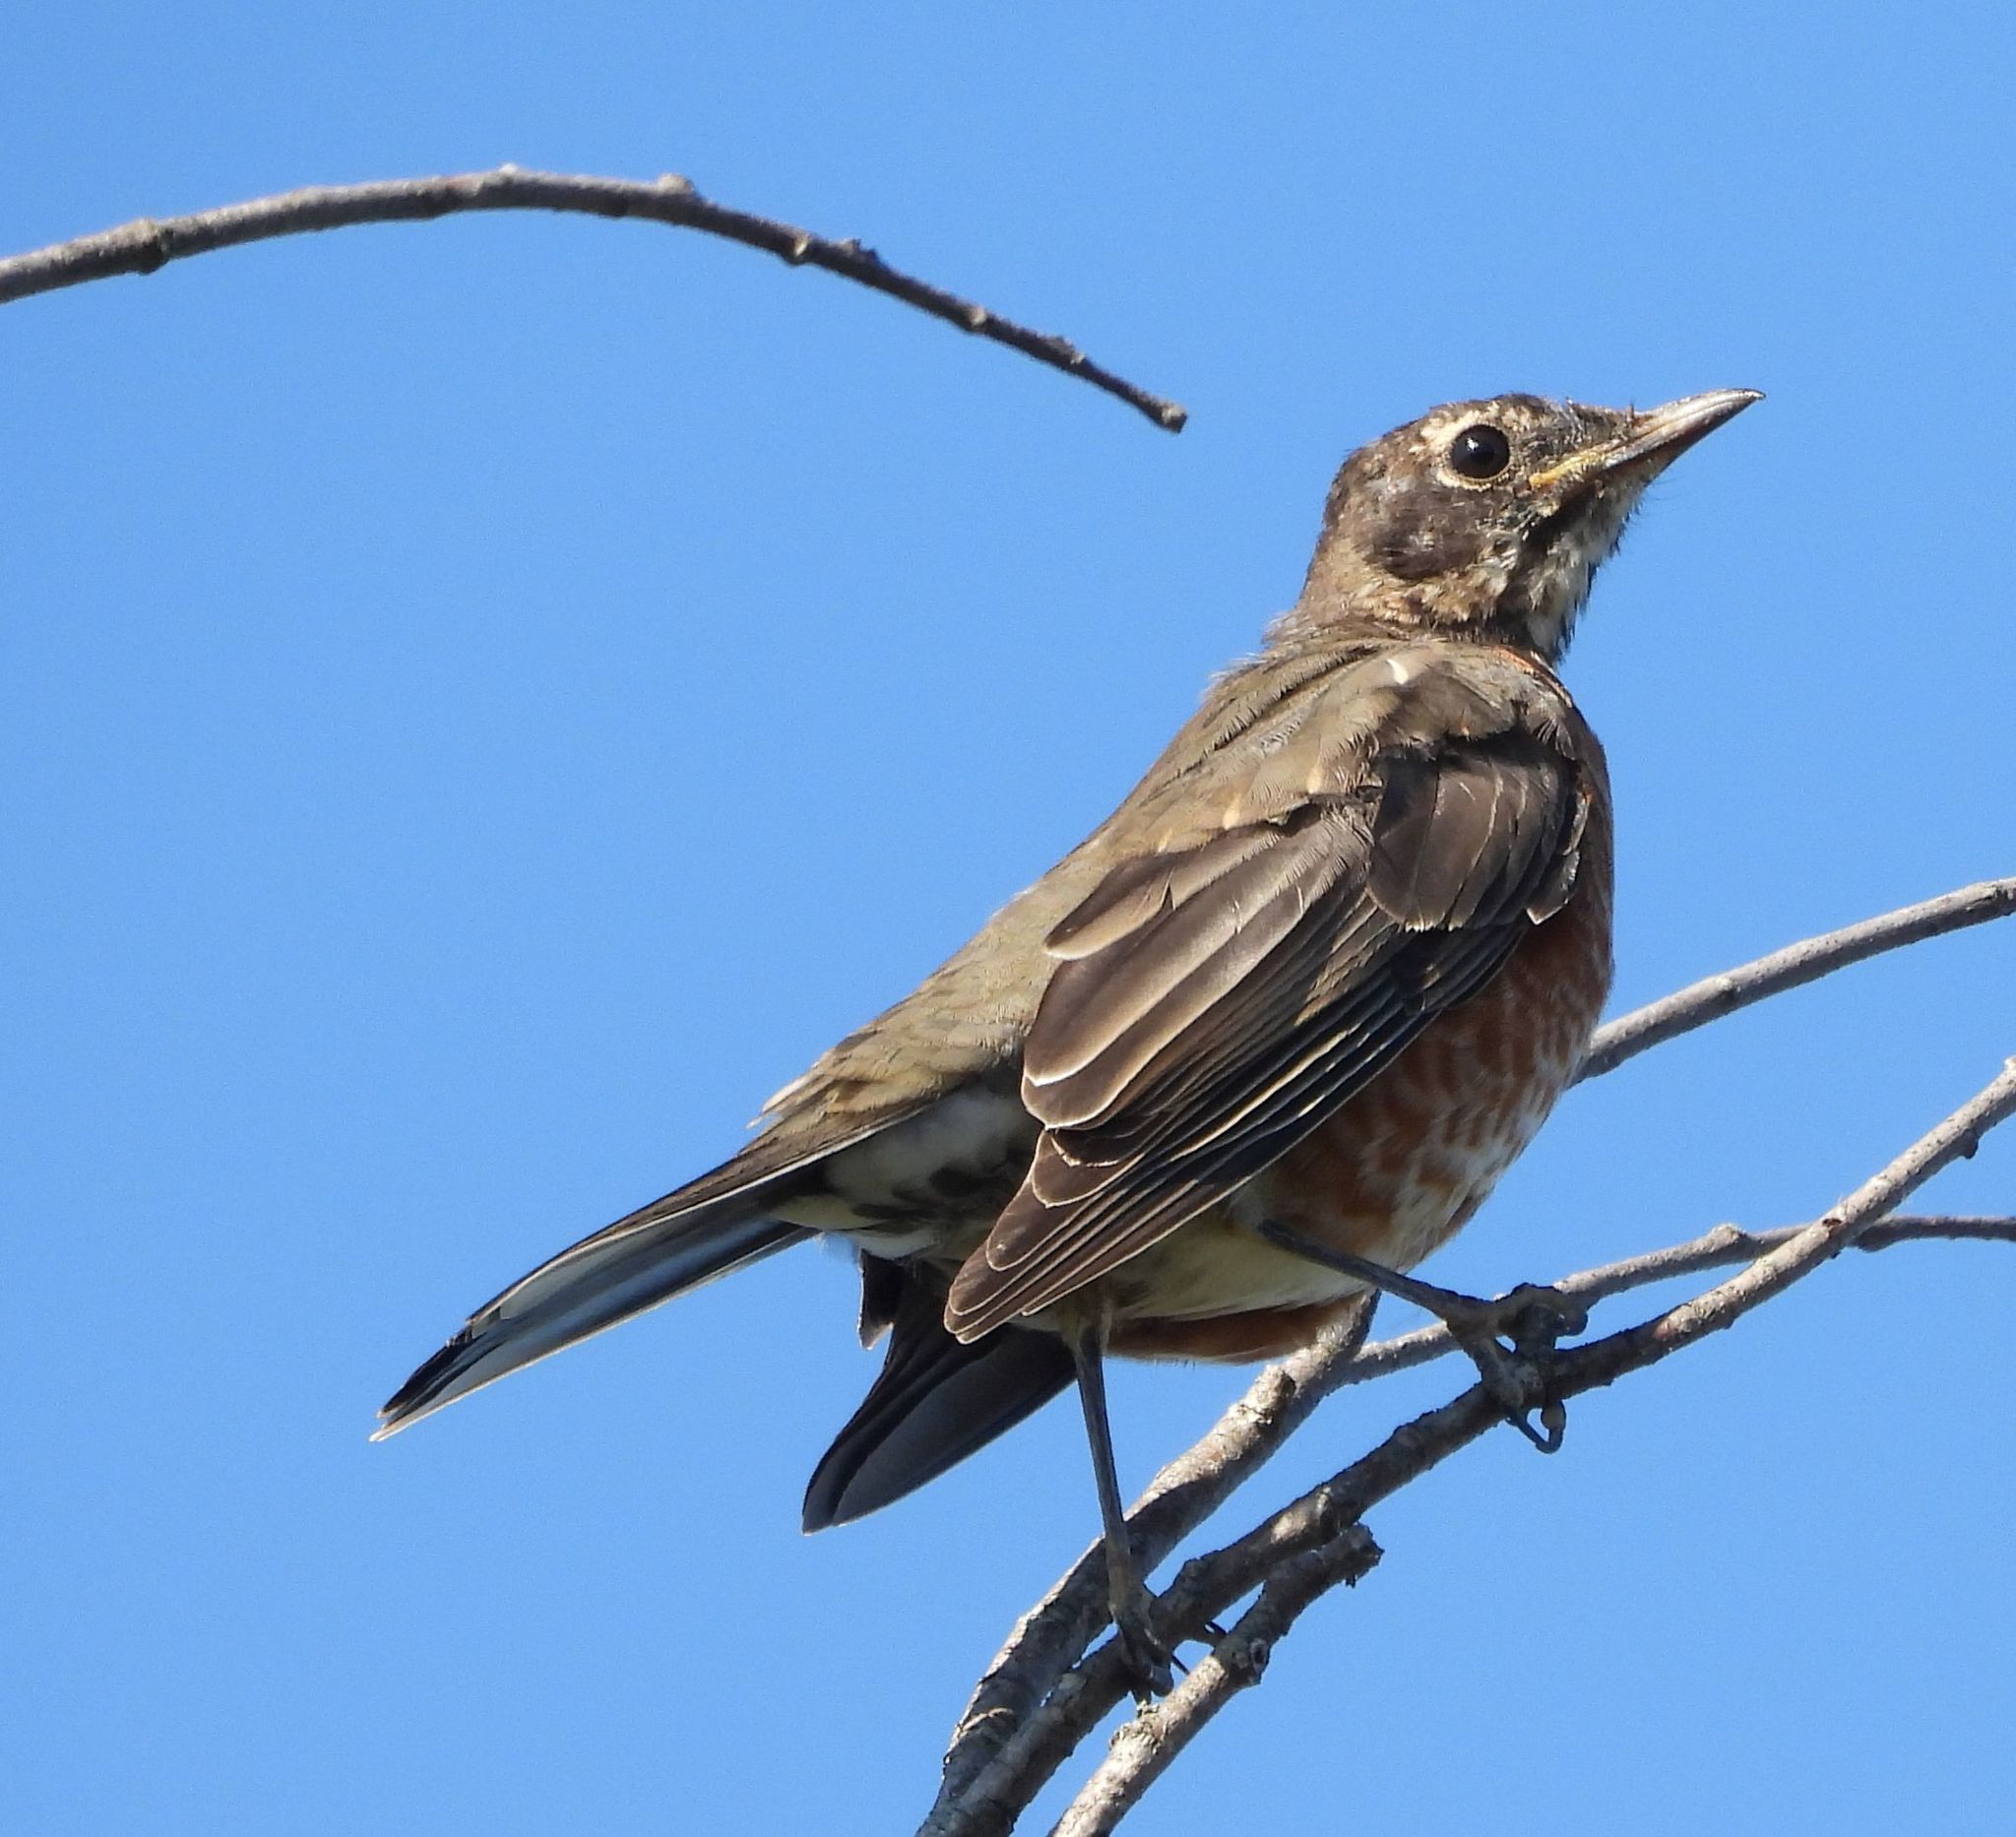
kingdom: Animalia
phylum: Chordata
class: Aves
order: Passeriformes
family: Turdidae
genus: Turdus
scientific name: Turdus migratorius
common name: American robin
